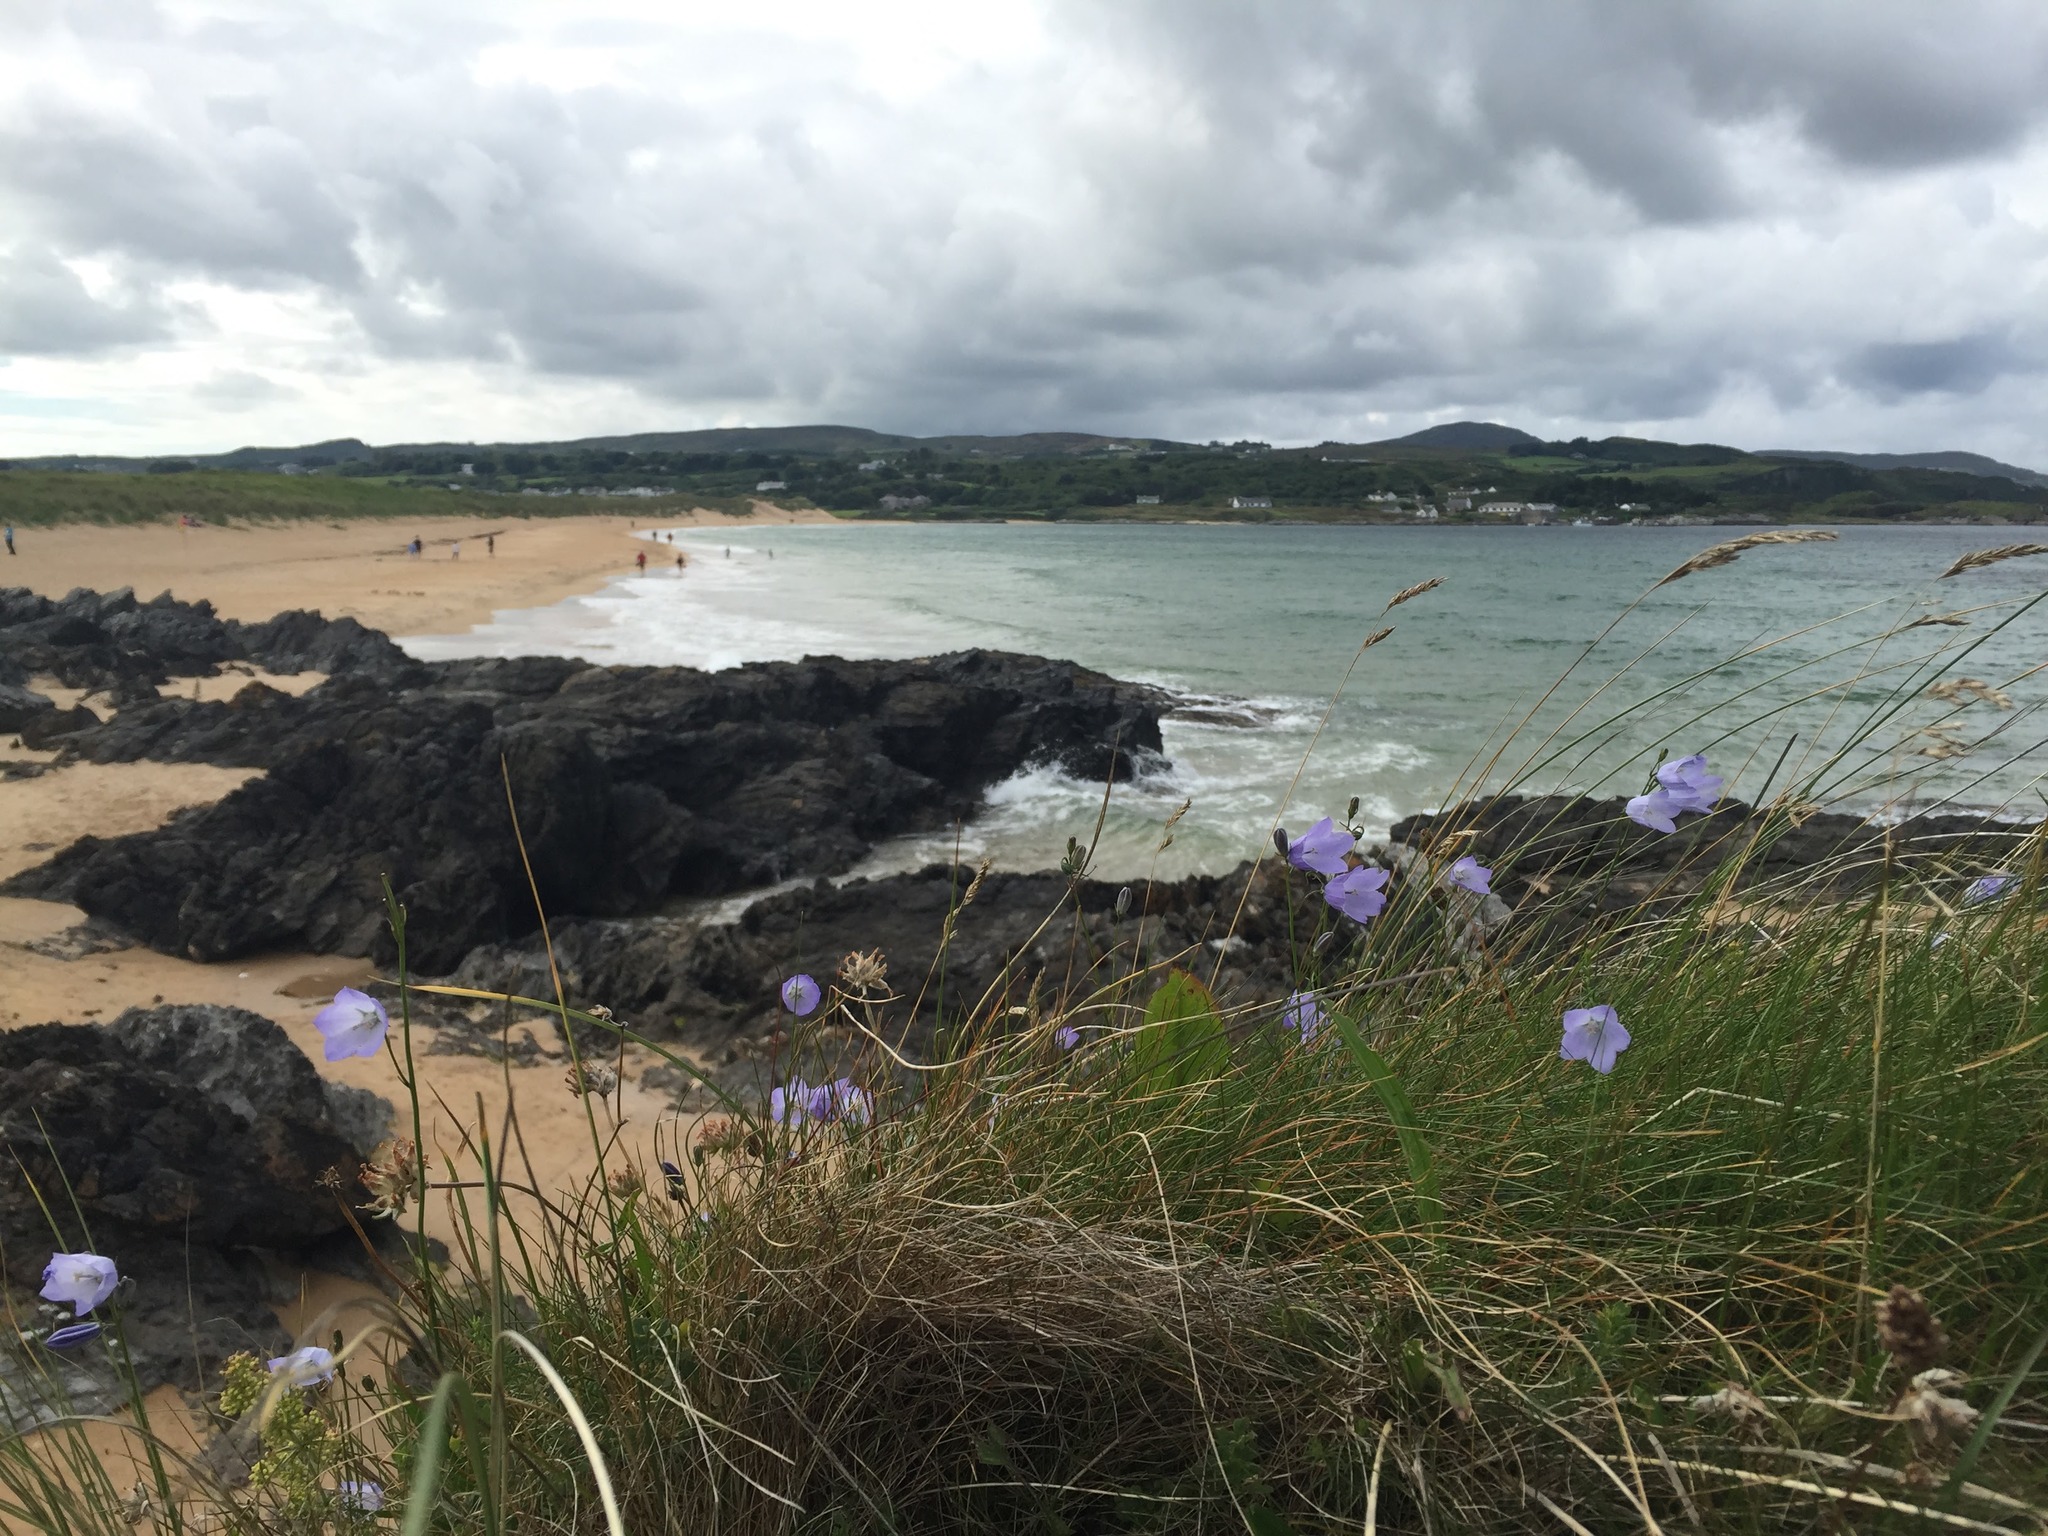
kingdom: Plantae
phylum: Tracheophyta
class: Magnoliopsida
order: Asterales
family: Campanulaceae
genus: Campanula
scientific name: Campanula rotundifolia
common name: Harebell
